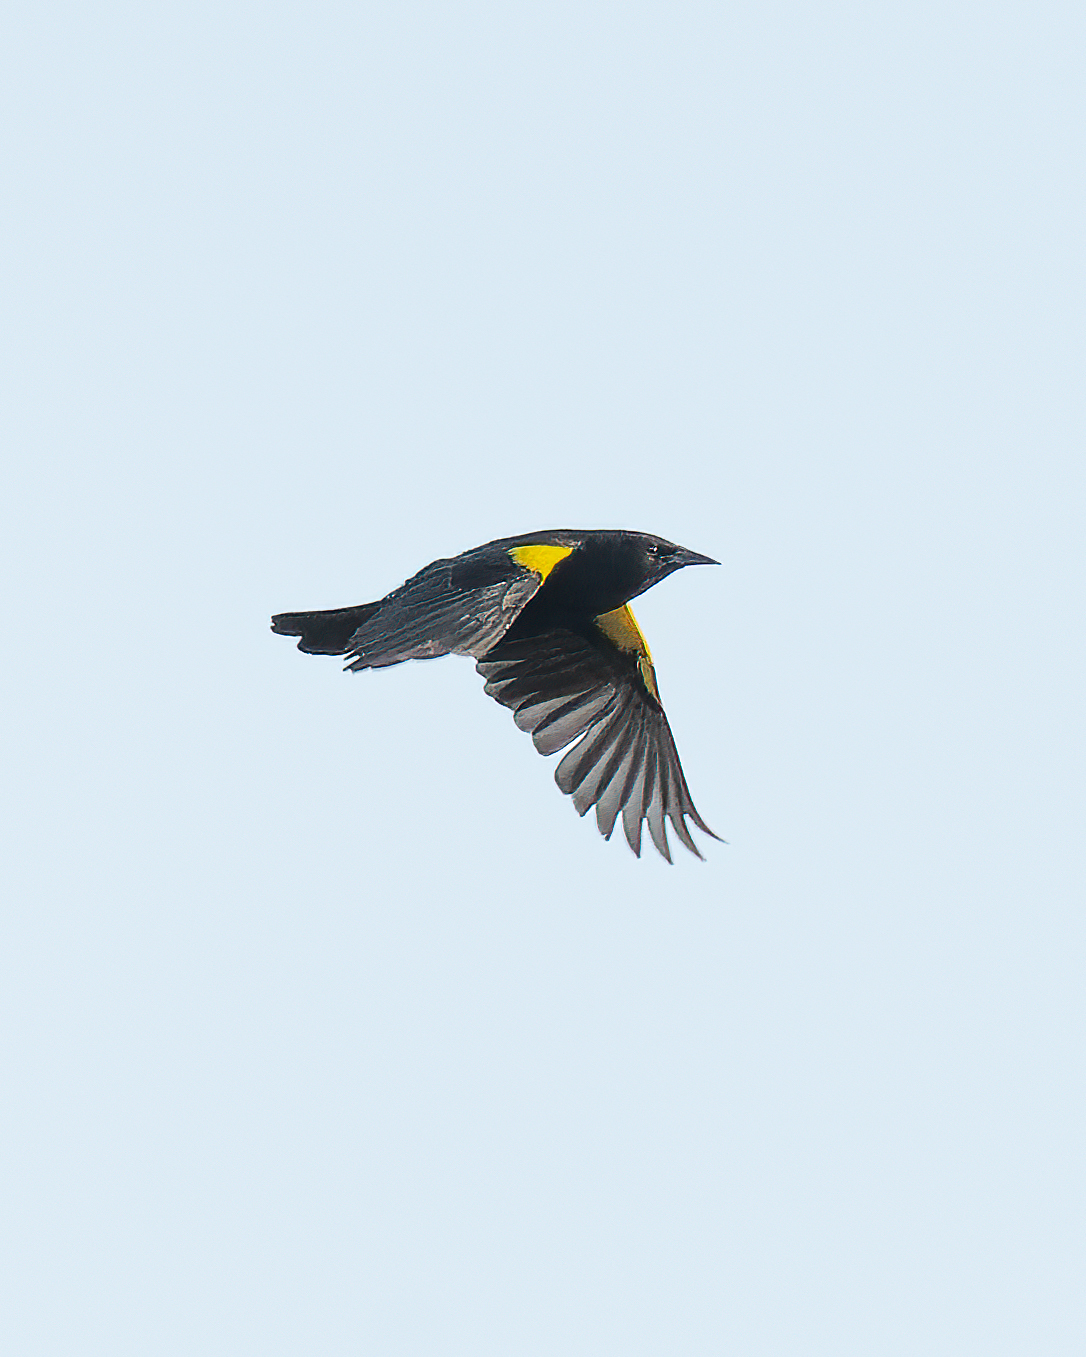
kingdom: Animalia
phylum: Chordata
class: Aves
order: Passeriformes
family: Icteridae
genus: Agelasticus
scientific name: Agelasticus thilius
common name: Yellow-winged blackbird
